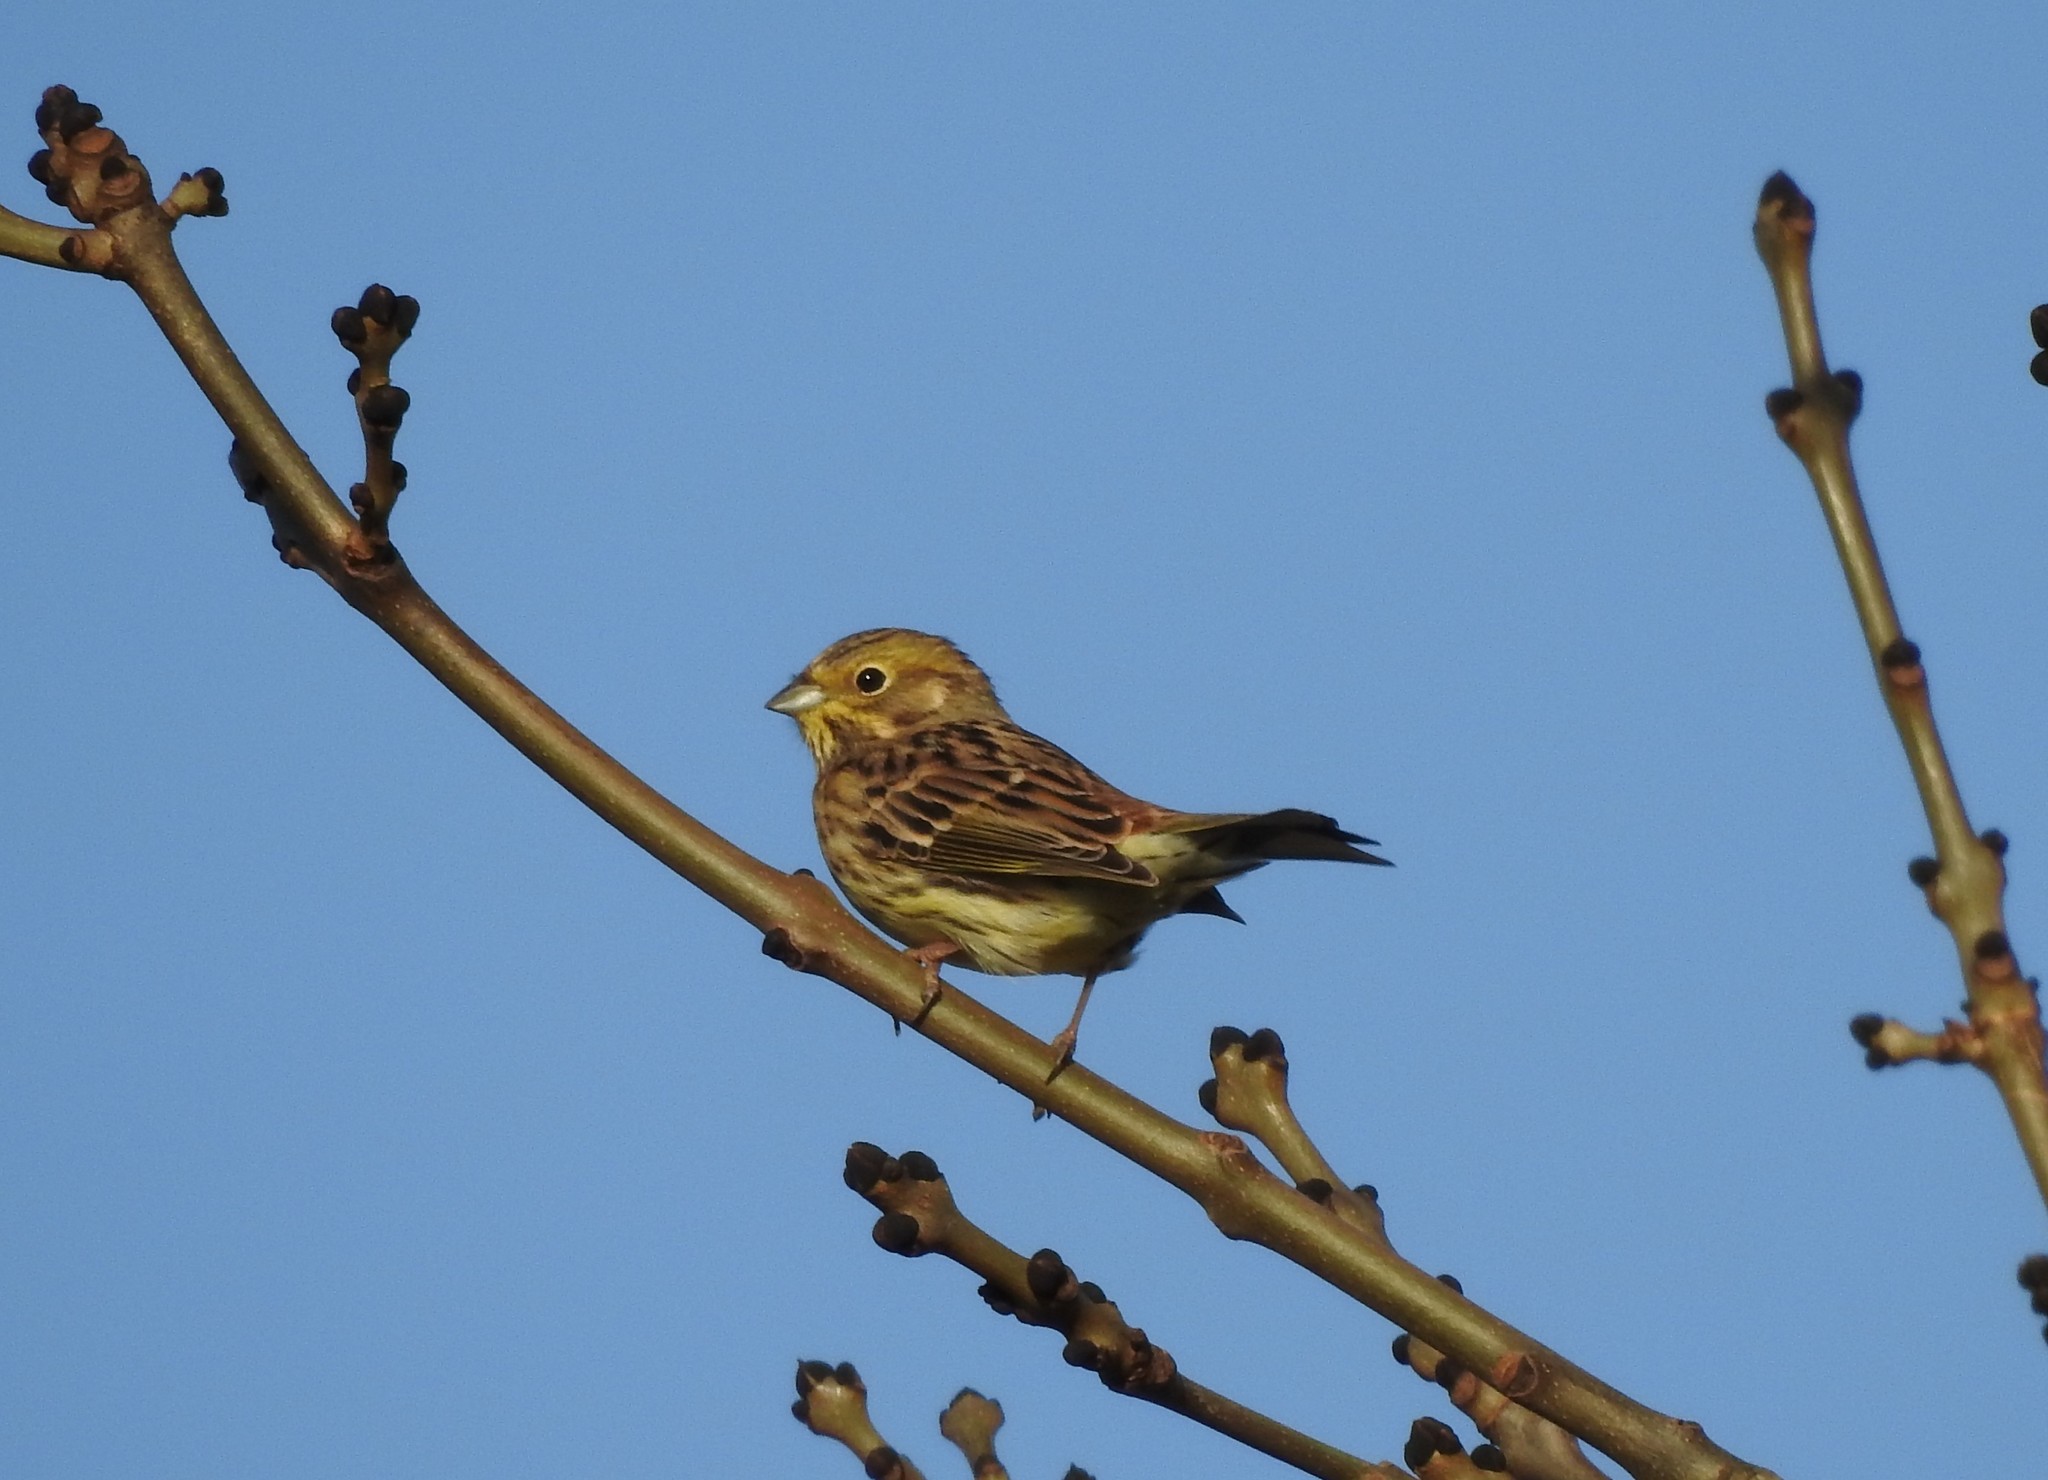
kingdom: Animalia
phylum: Chordata
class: Aves
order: Passeriformes
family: Emberizidae
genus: Emberiza
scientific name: Emberiza citrinella
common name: Yellowhammer
